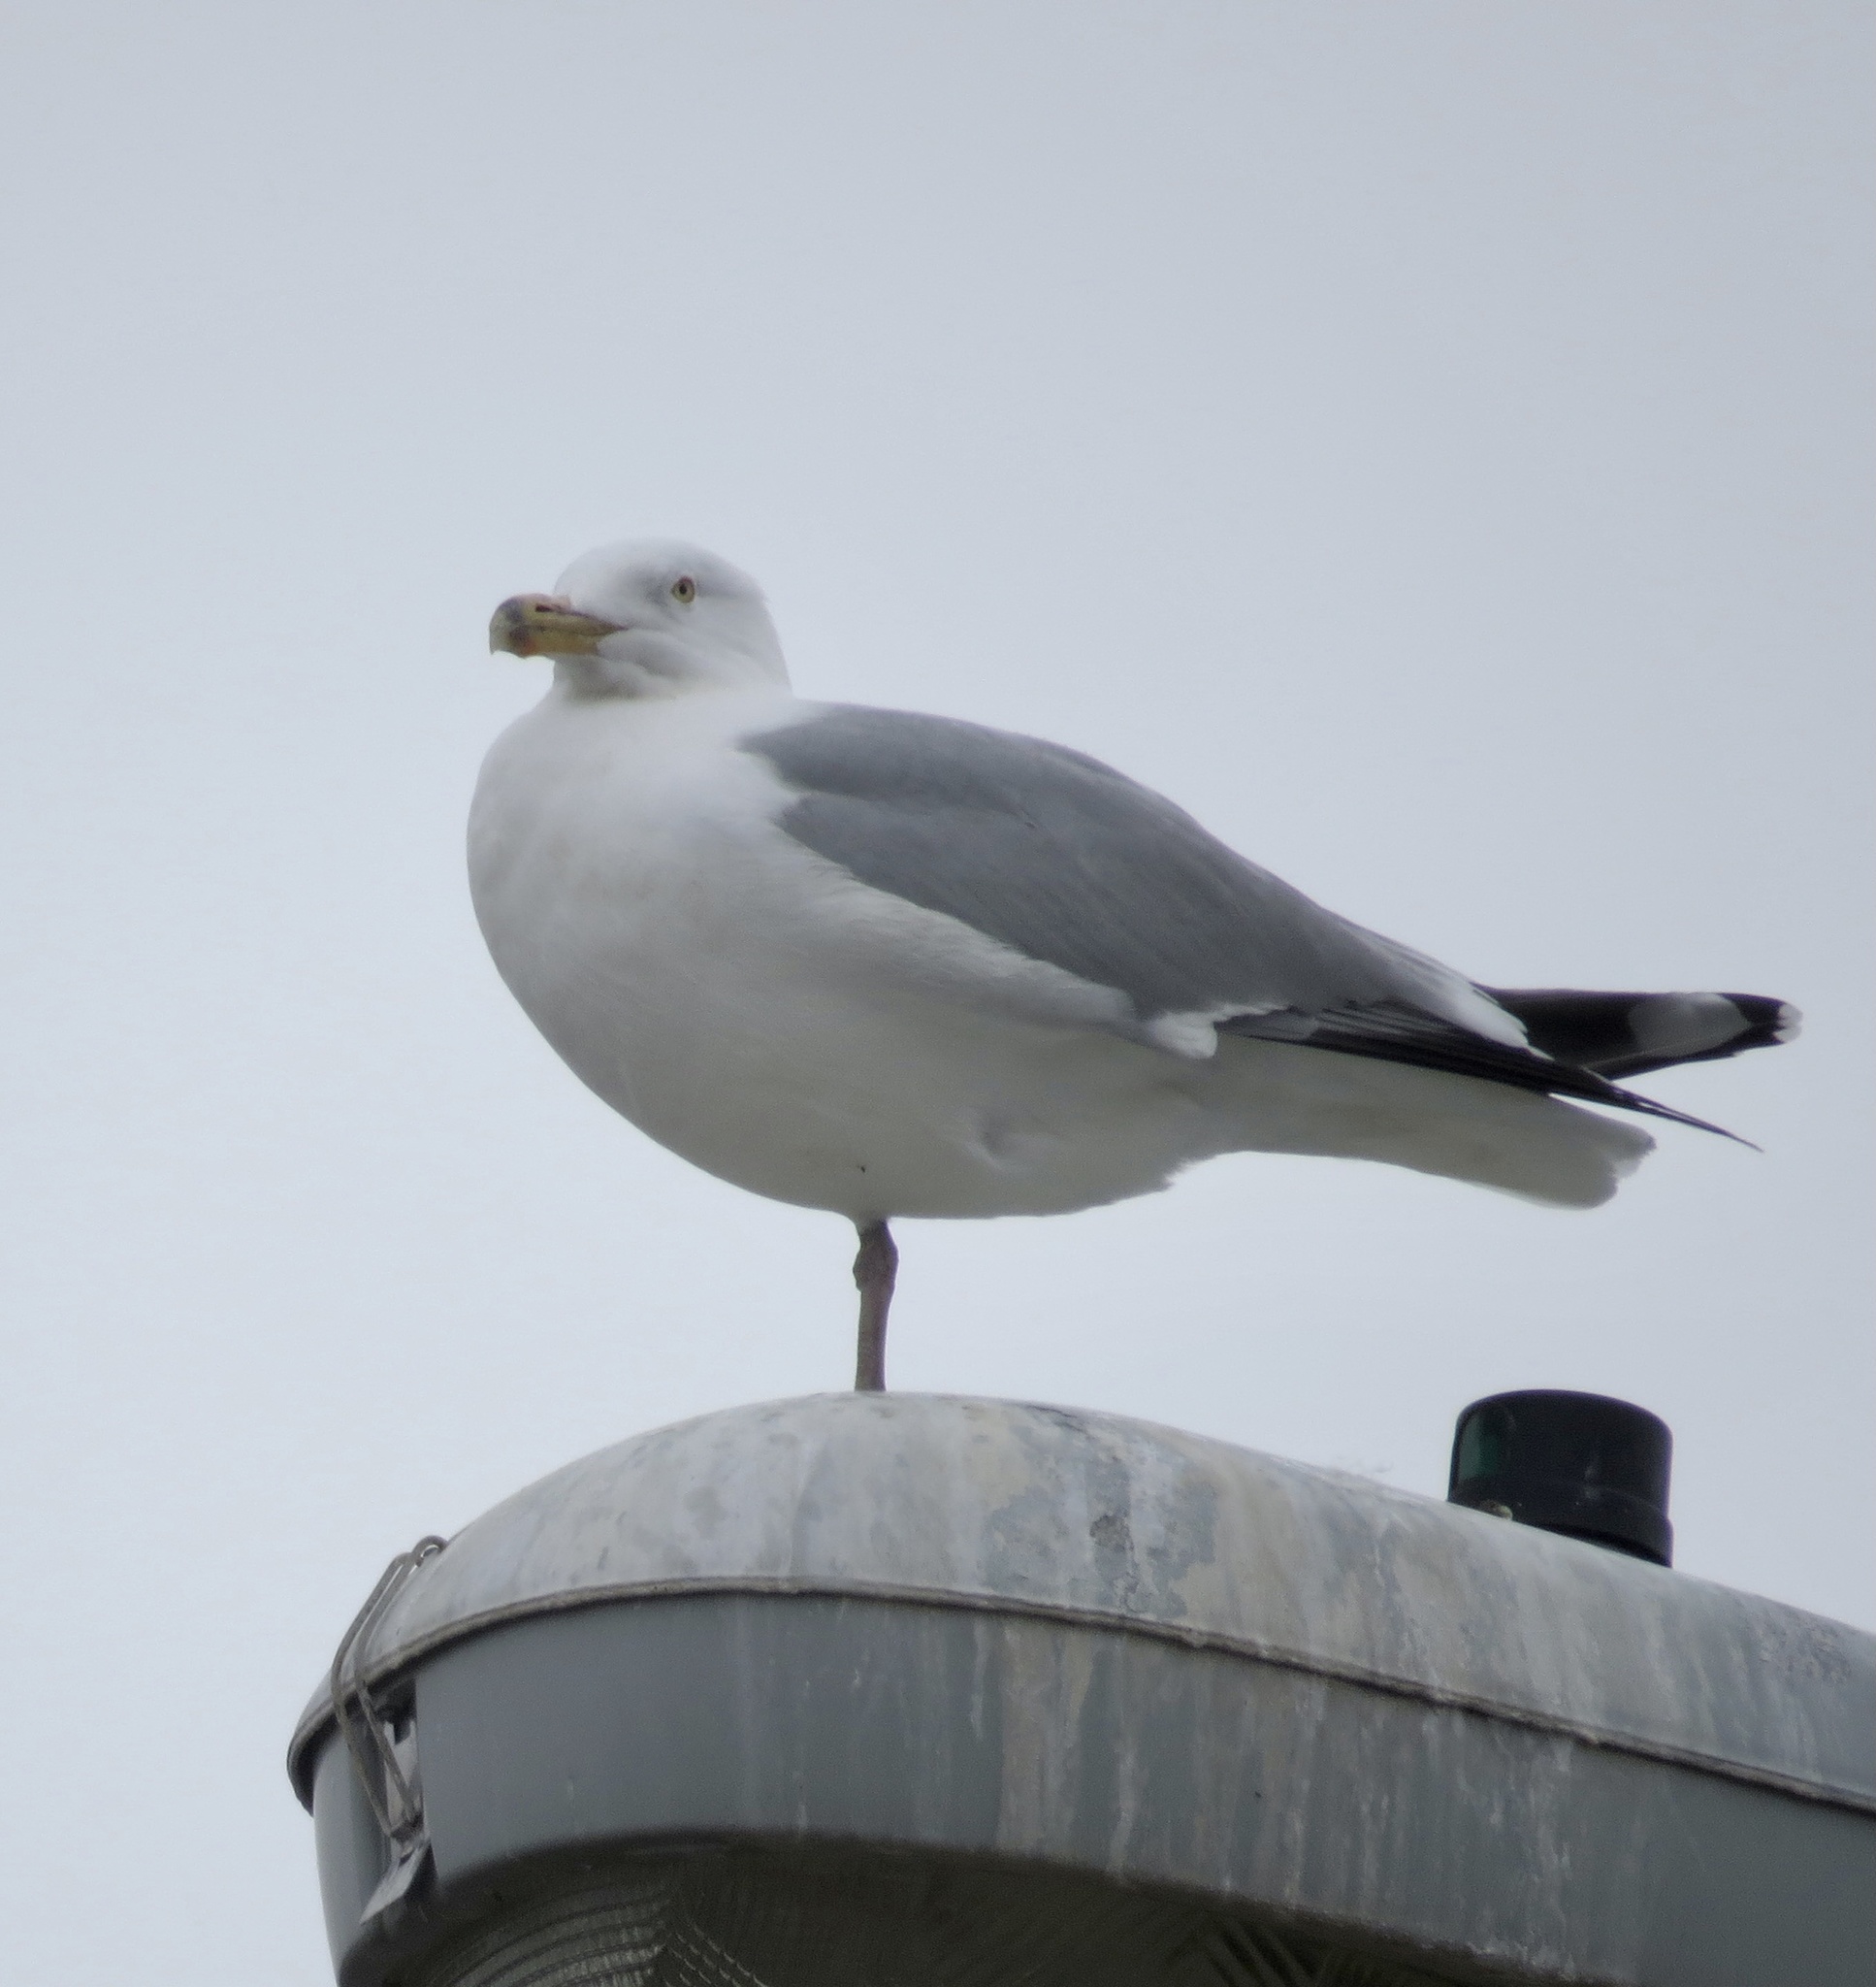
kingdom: Animalia
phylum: Chordata
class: Aves
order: Charadriiformes
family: Laridae
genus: Larus
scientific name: Larus argentatus
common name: Herring gull
